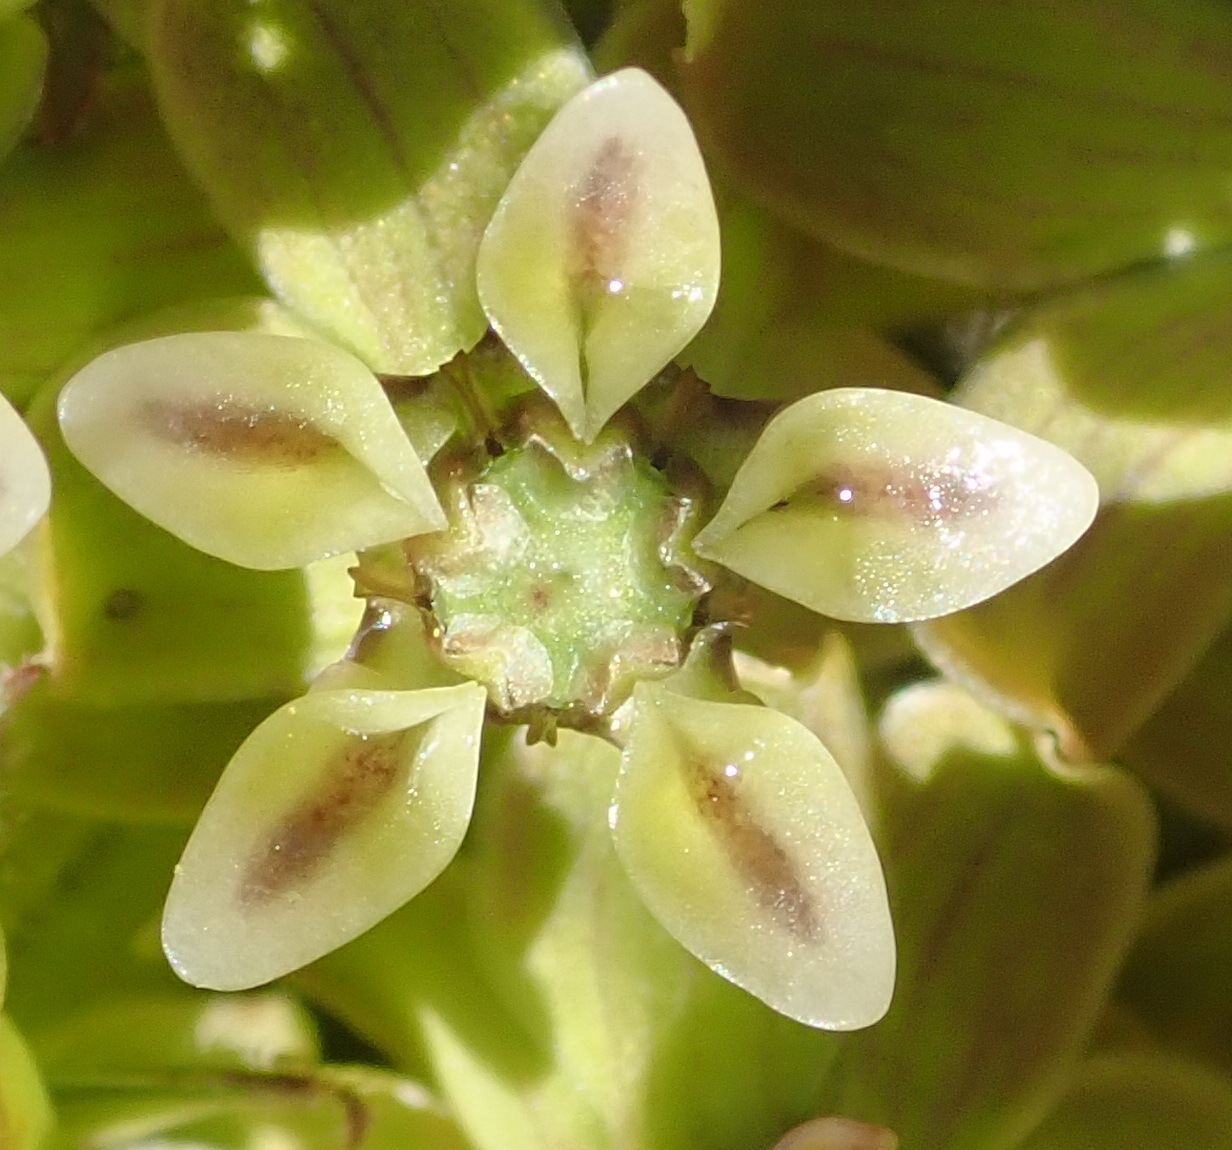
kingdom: Plantae
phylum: Tracheophyta
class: Magnoliopsida
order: Gentianales
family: Apocynaceae
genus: Asclepias
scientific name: Asclepias crispa
